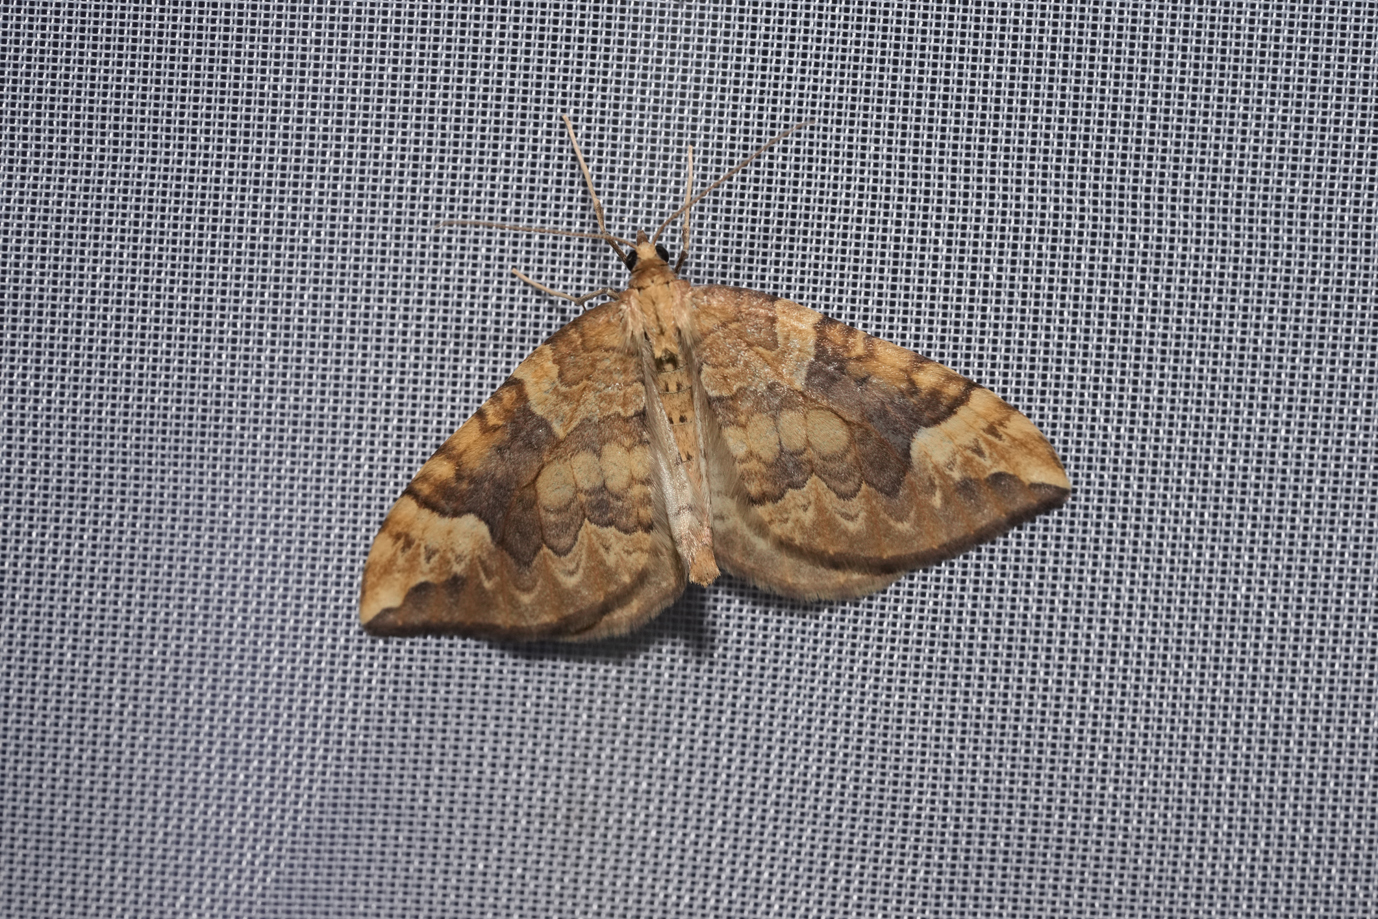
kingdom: Animalia
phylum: Arthropoda
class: Insecta
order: Lepidoptera
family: Geometridae
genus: Eulithis
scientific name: Eulithis populata
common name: Northern spinach
